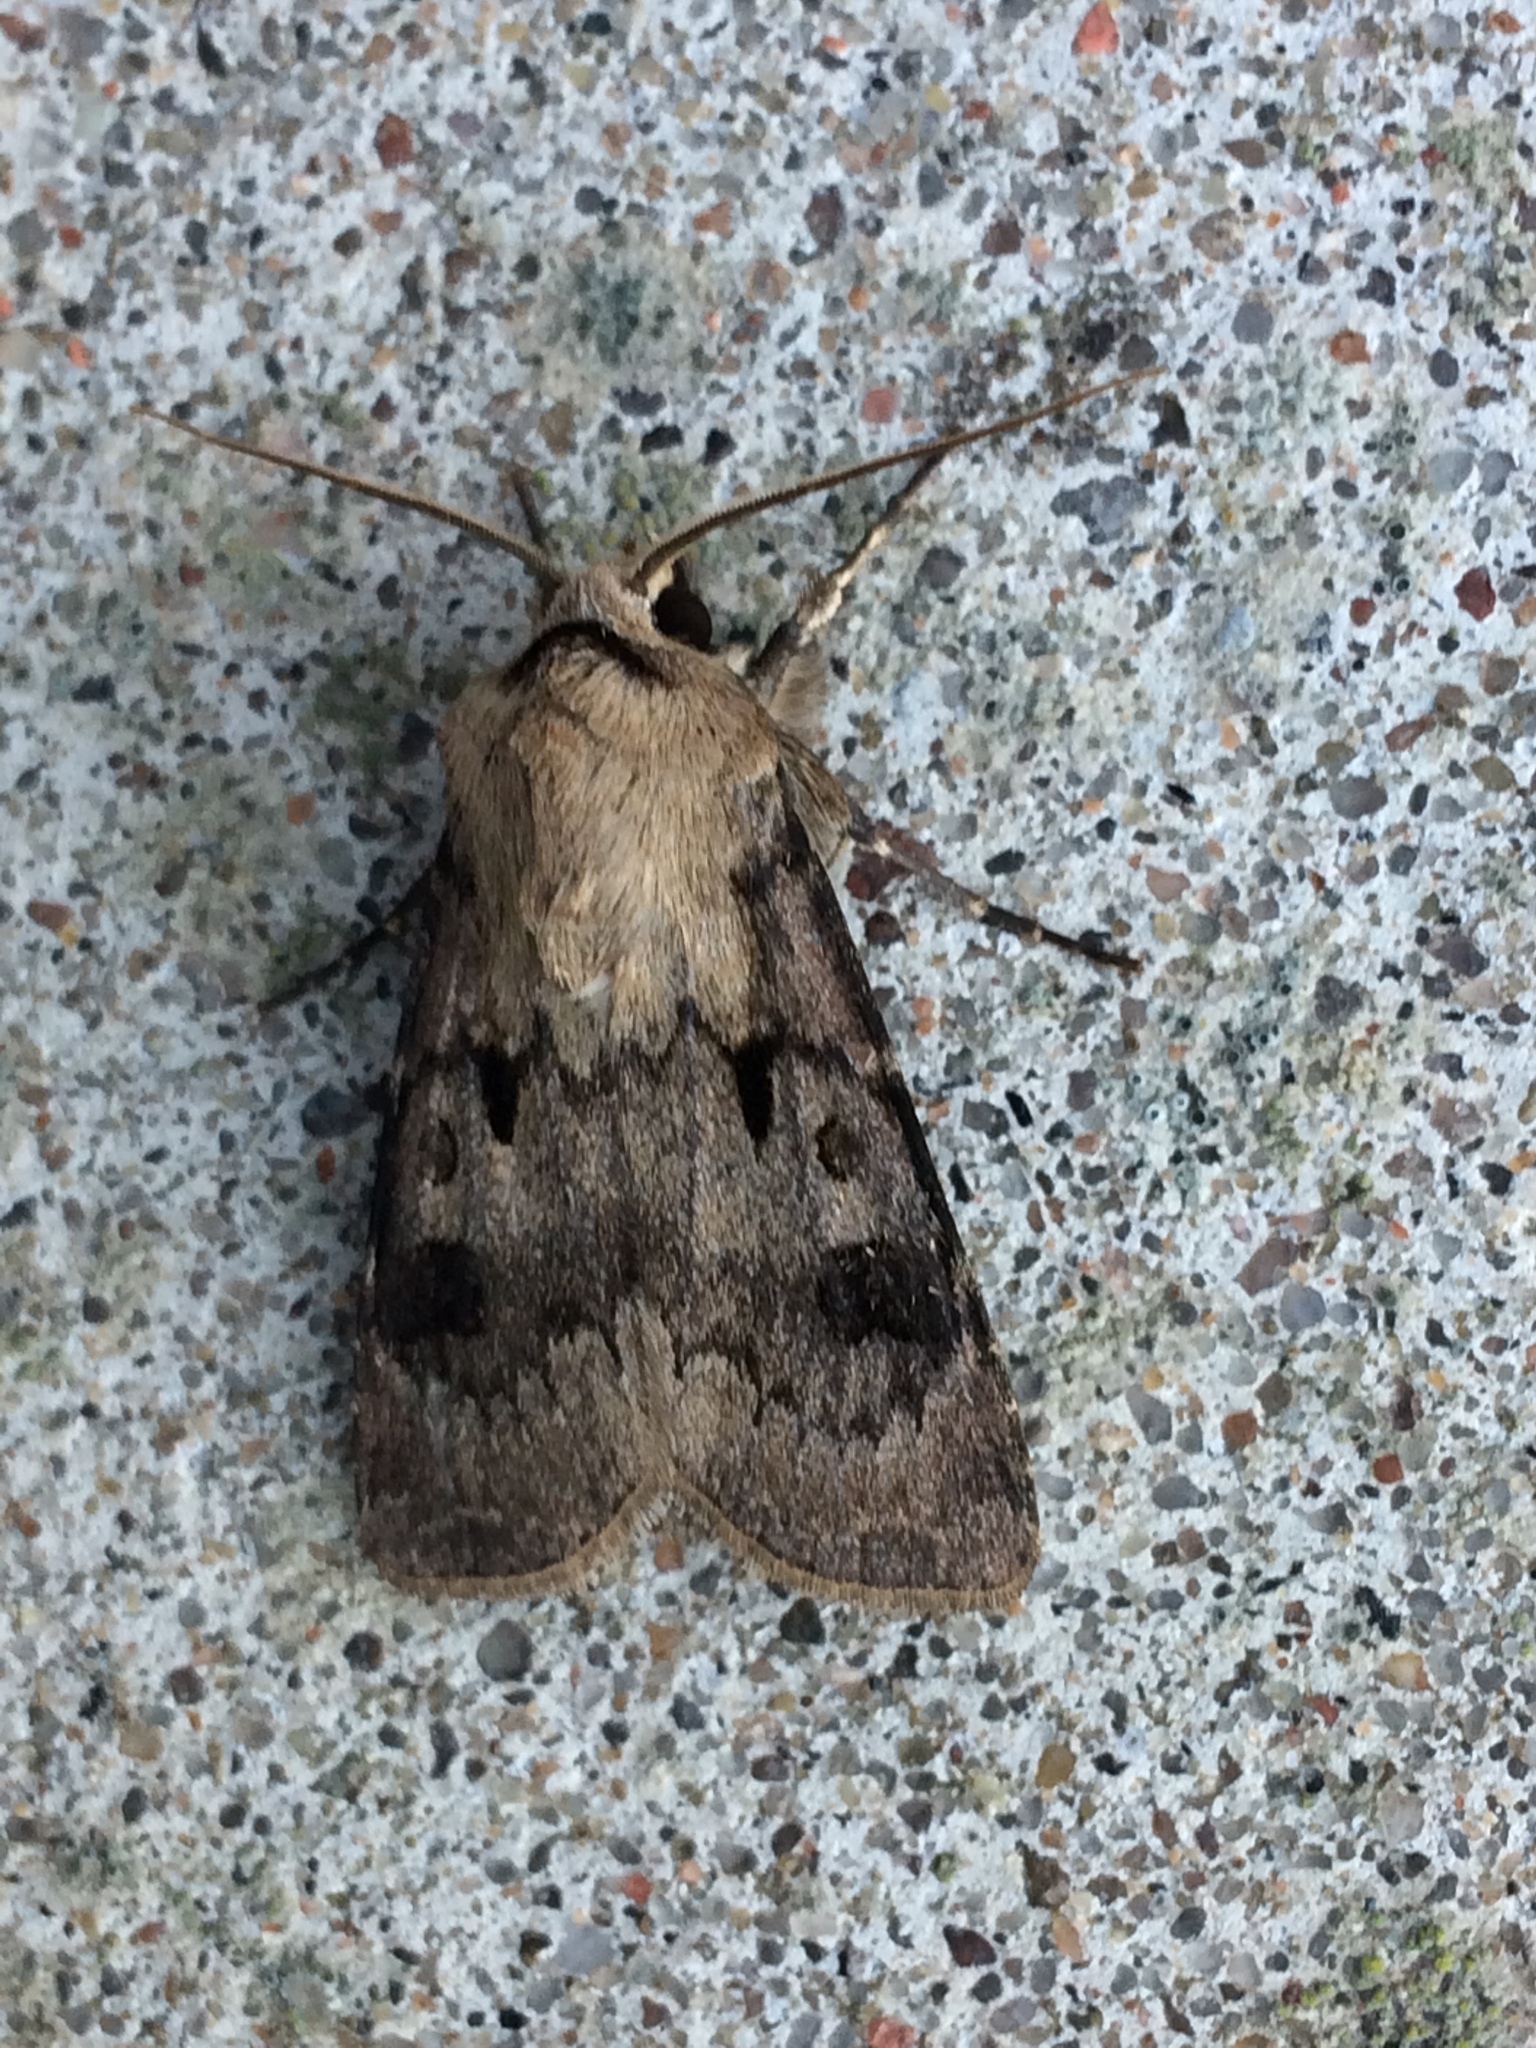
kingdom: Animalia
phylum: Arthropoda
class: Insecta
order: Lepidoptera
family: Noctuidae
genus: Agrotis
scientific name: Agrotis exclamationis
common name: Heart and dart
